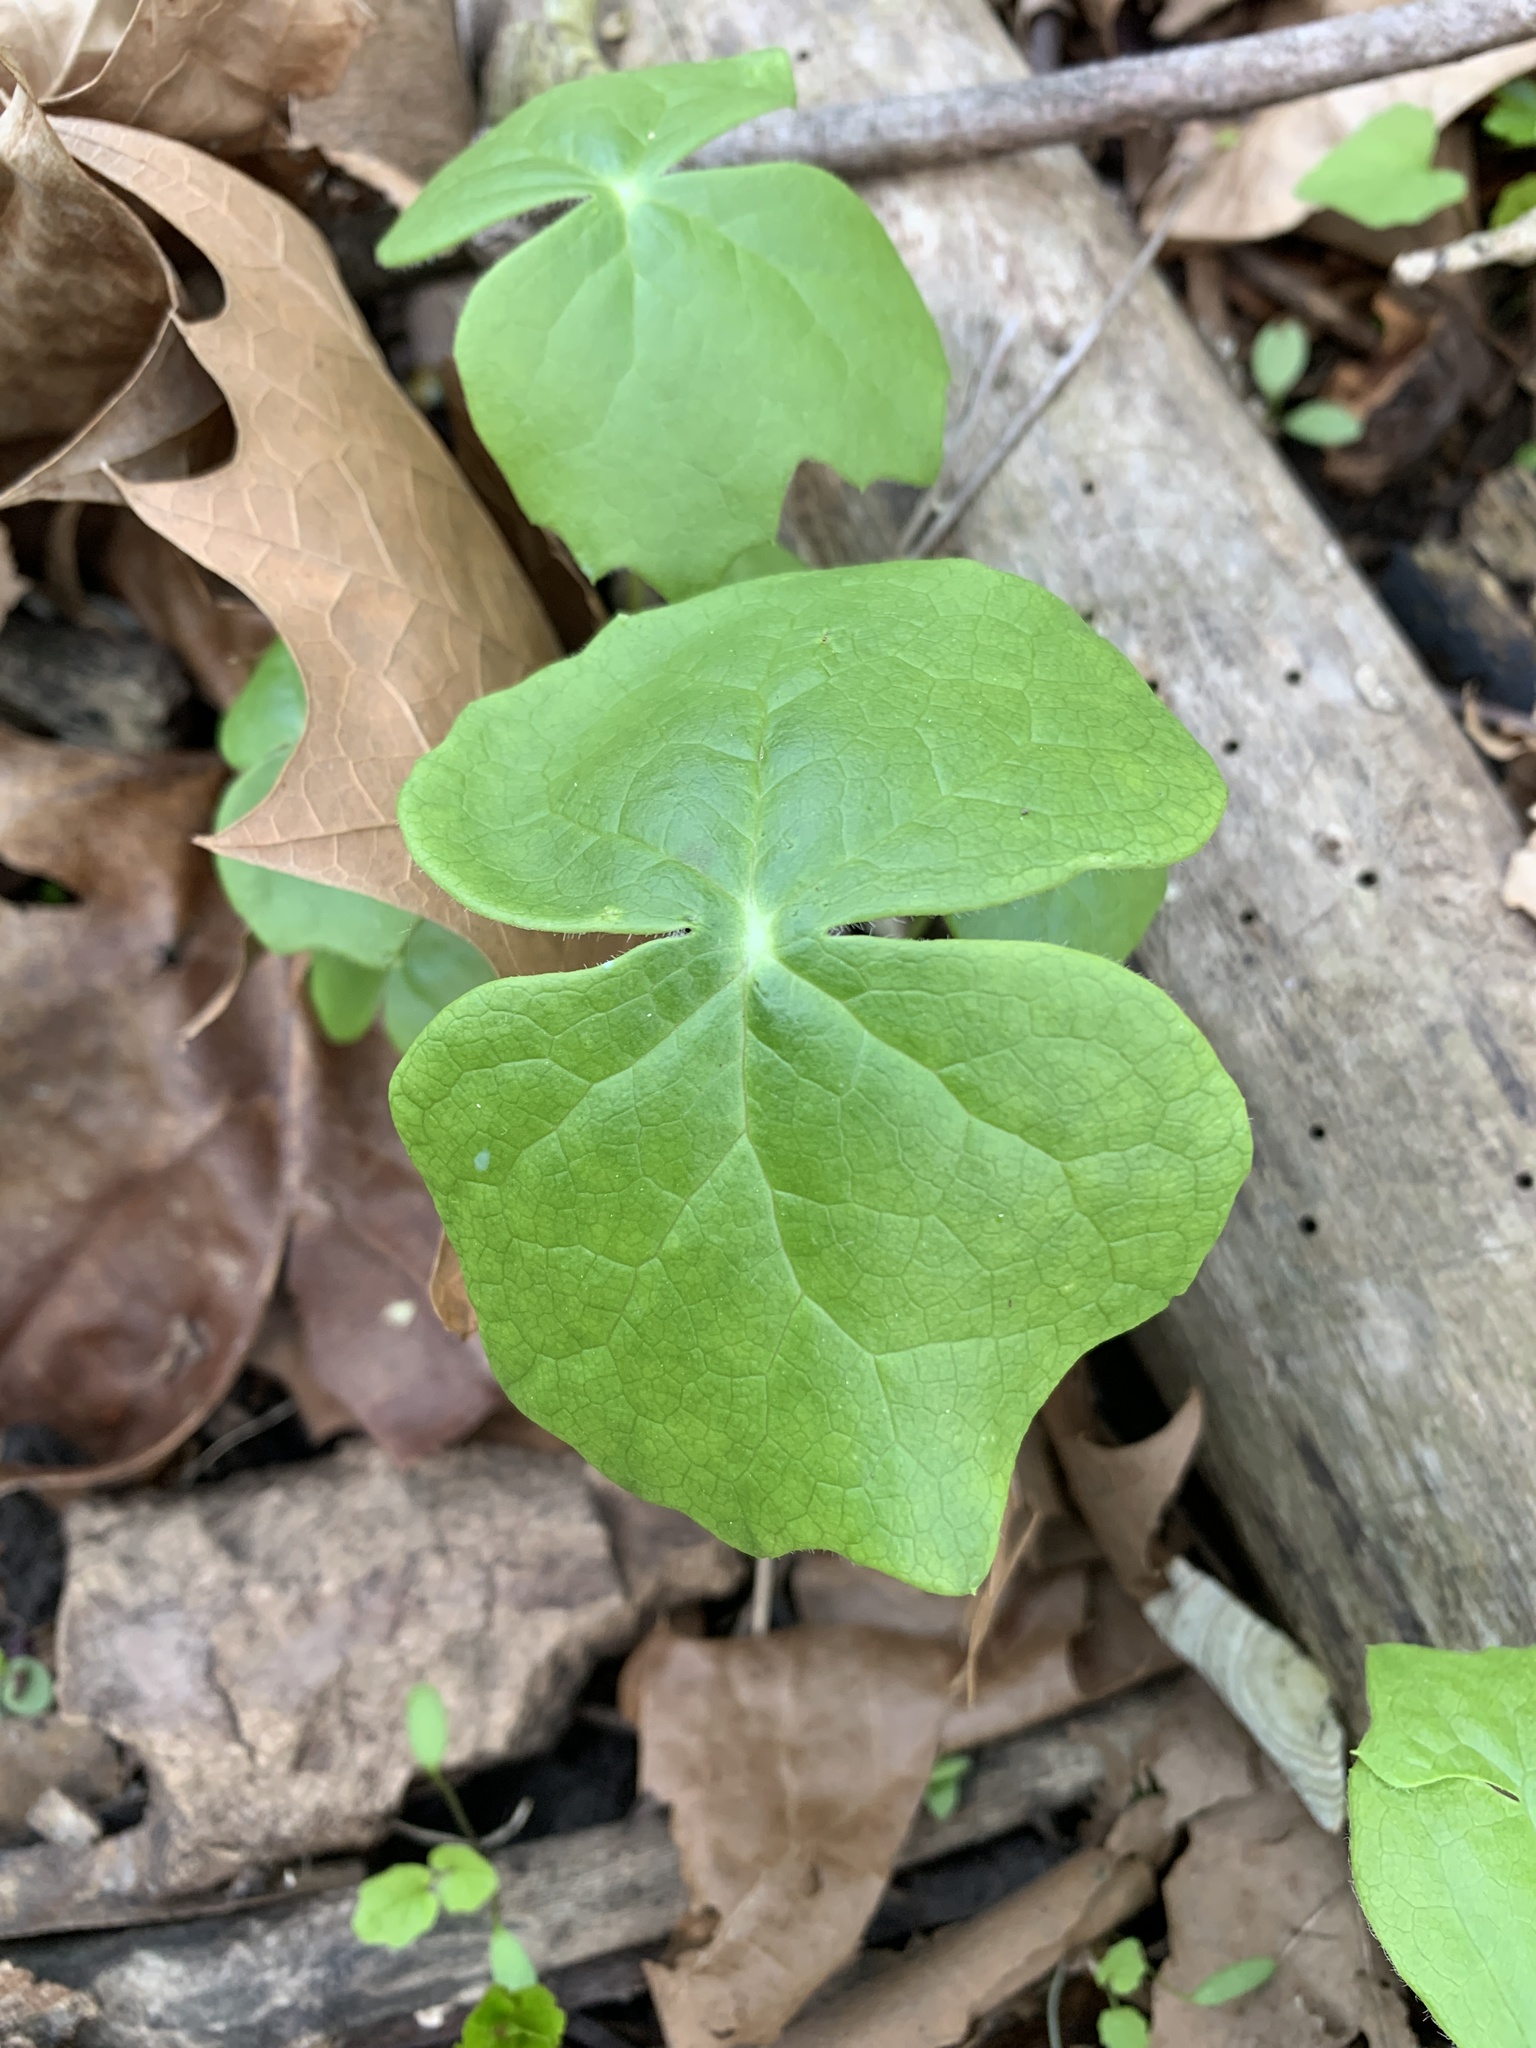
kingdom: Plantae
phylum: Tracheophyta
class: Magnoliopsida
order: Ranunculales
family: Berberidaceae
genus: Podophyllum
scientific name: Podophyllum peltatum
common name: Wild mandrake
